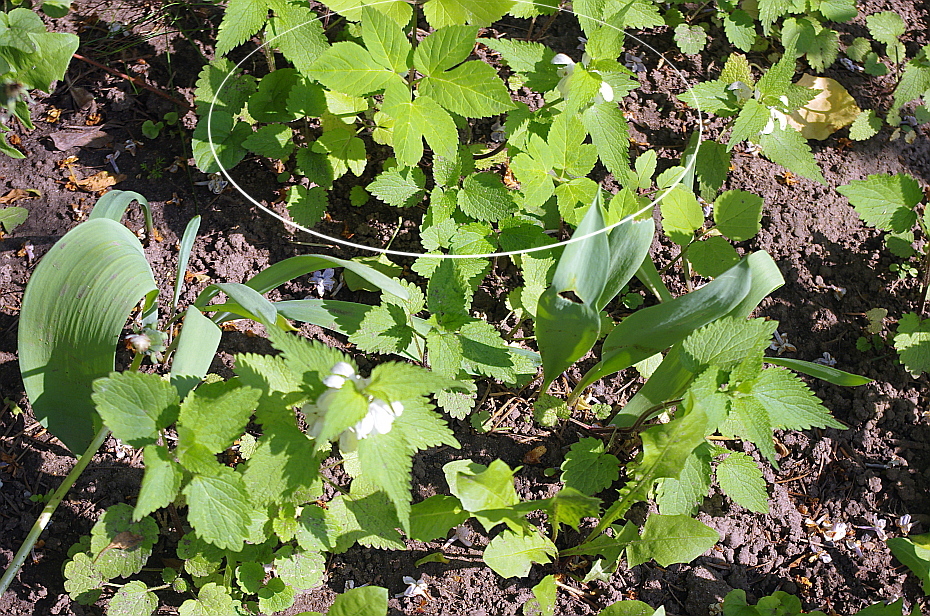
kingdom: Plantae
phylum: Tracheophyta
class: Magnoliopsida
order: Apiales
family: Apiaceae
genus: Aegopodium
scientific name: Aegopodium podagraria
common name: Ground-elder
